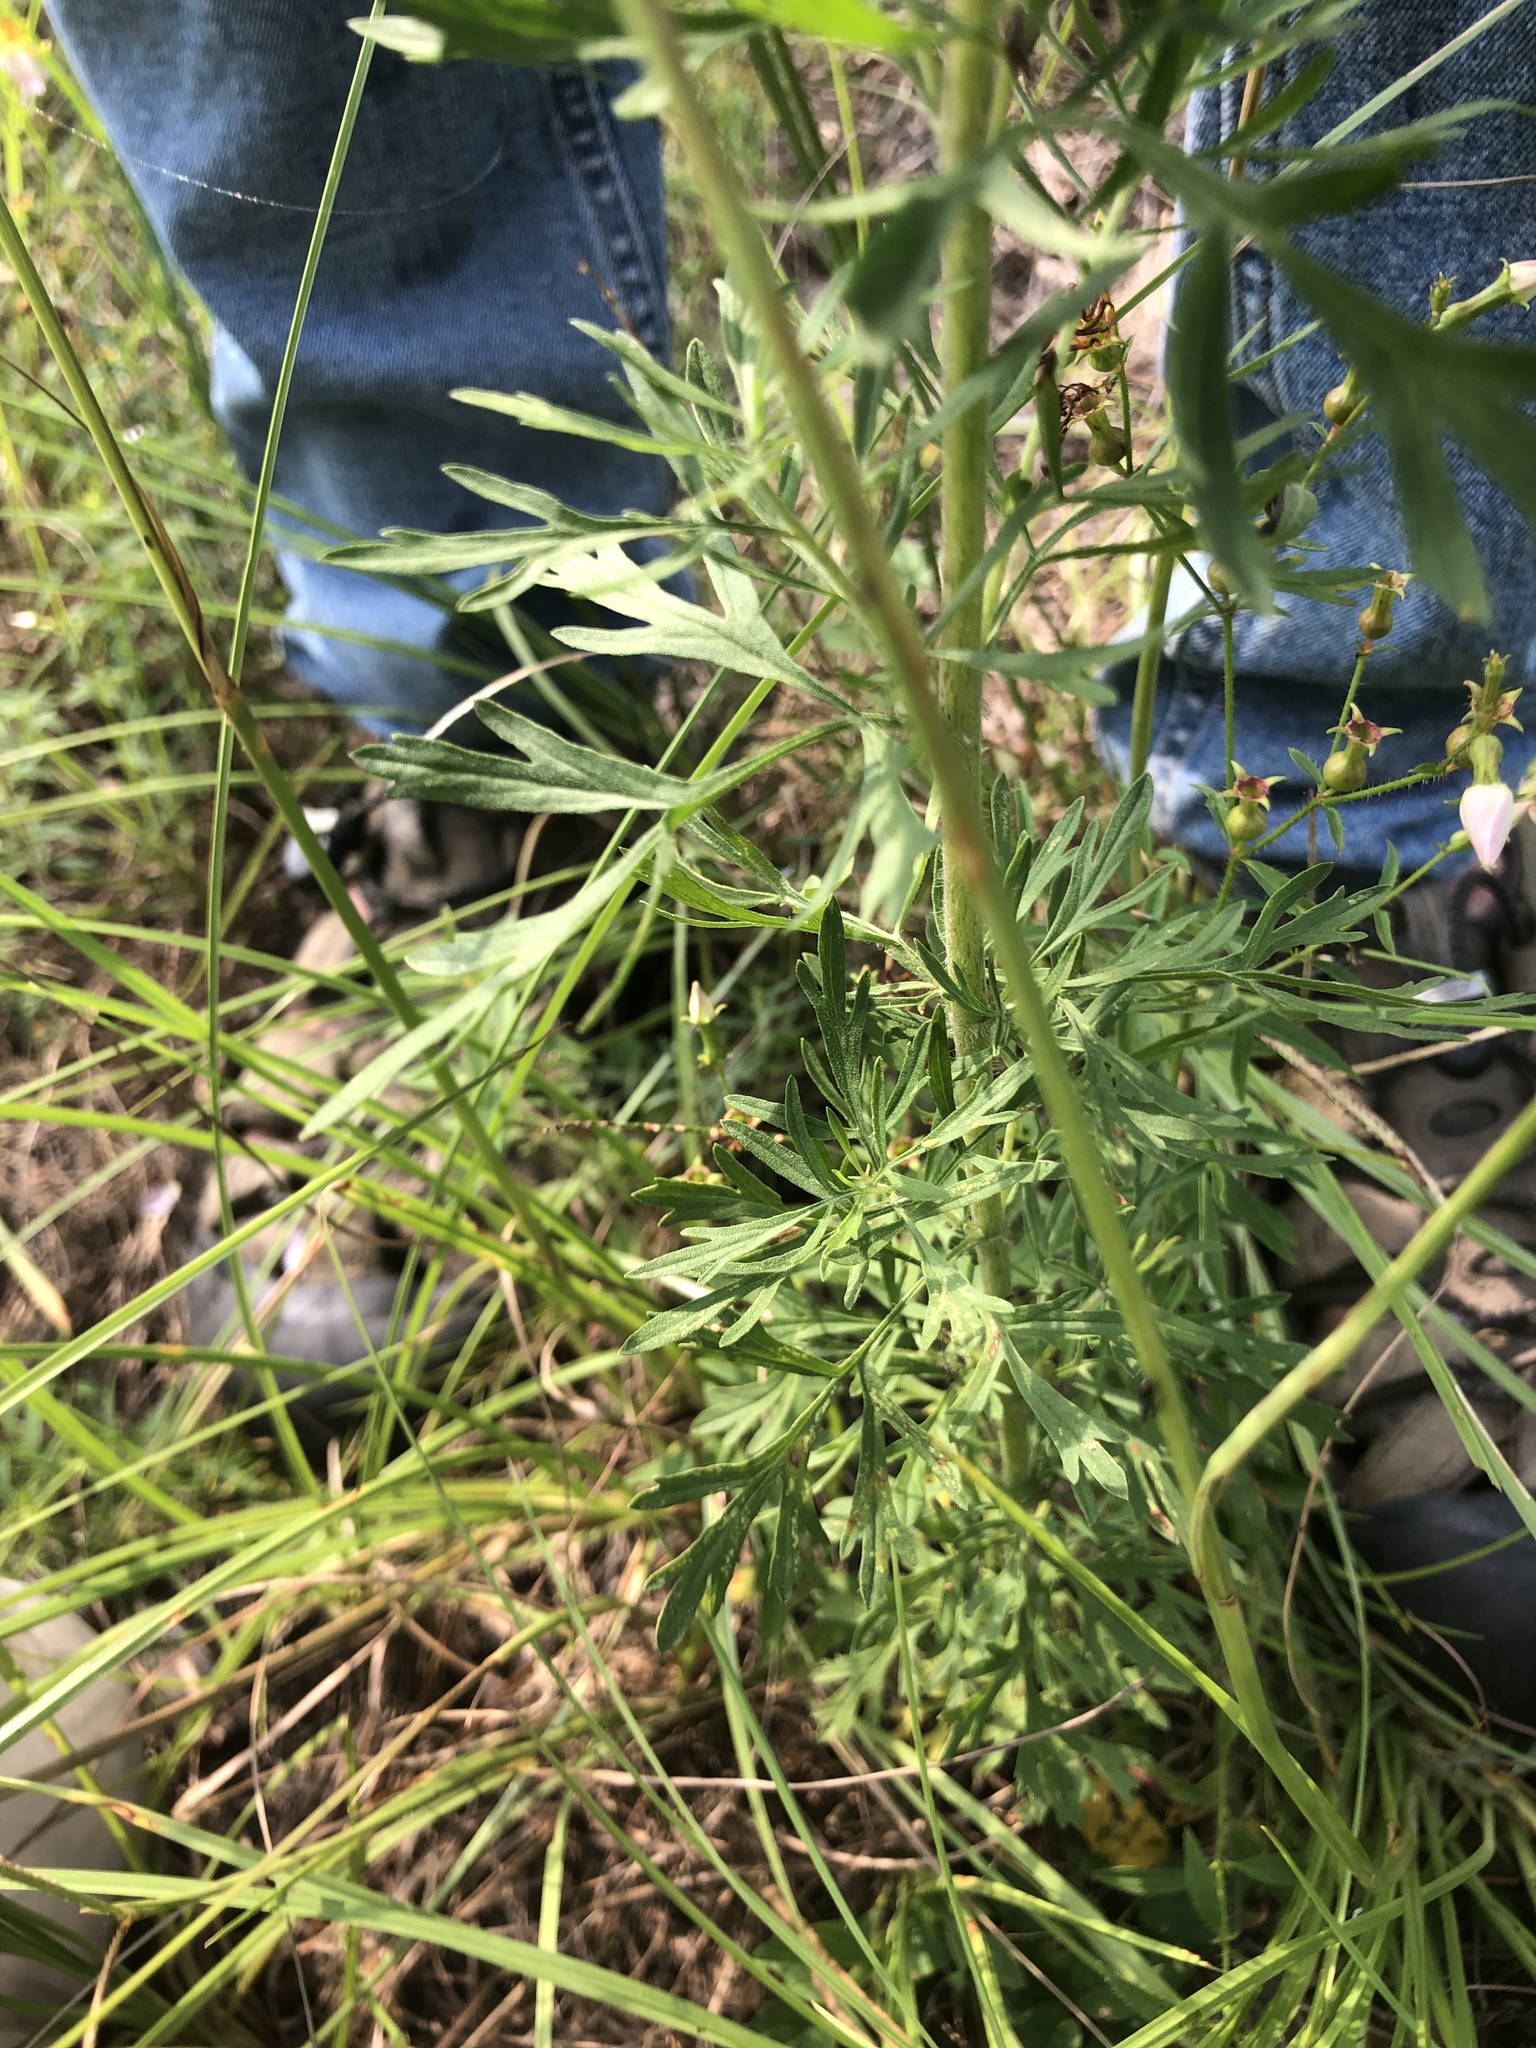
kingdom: Plantae
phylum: Tracheophyta
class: Magnoliopsida
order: Asterales
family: Asteraceae
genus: Eupatorium
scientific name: Eupatorium compositifolium
